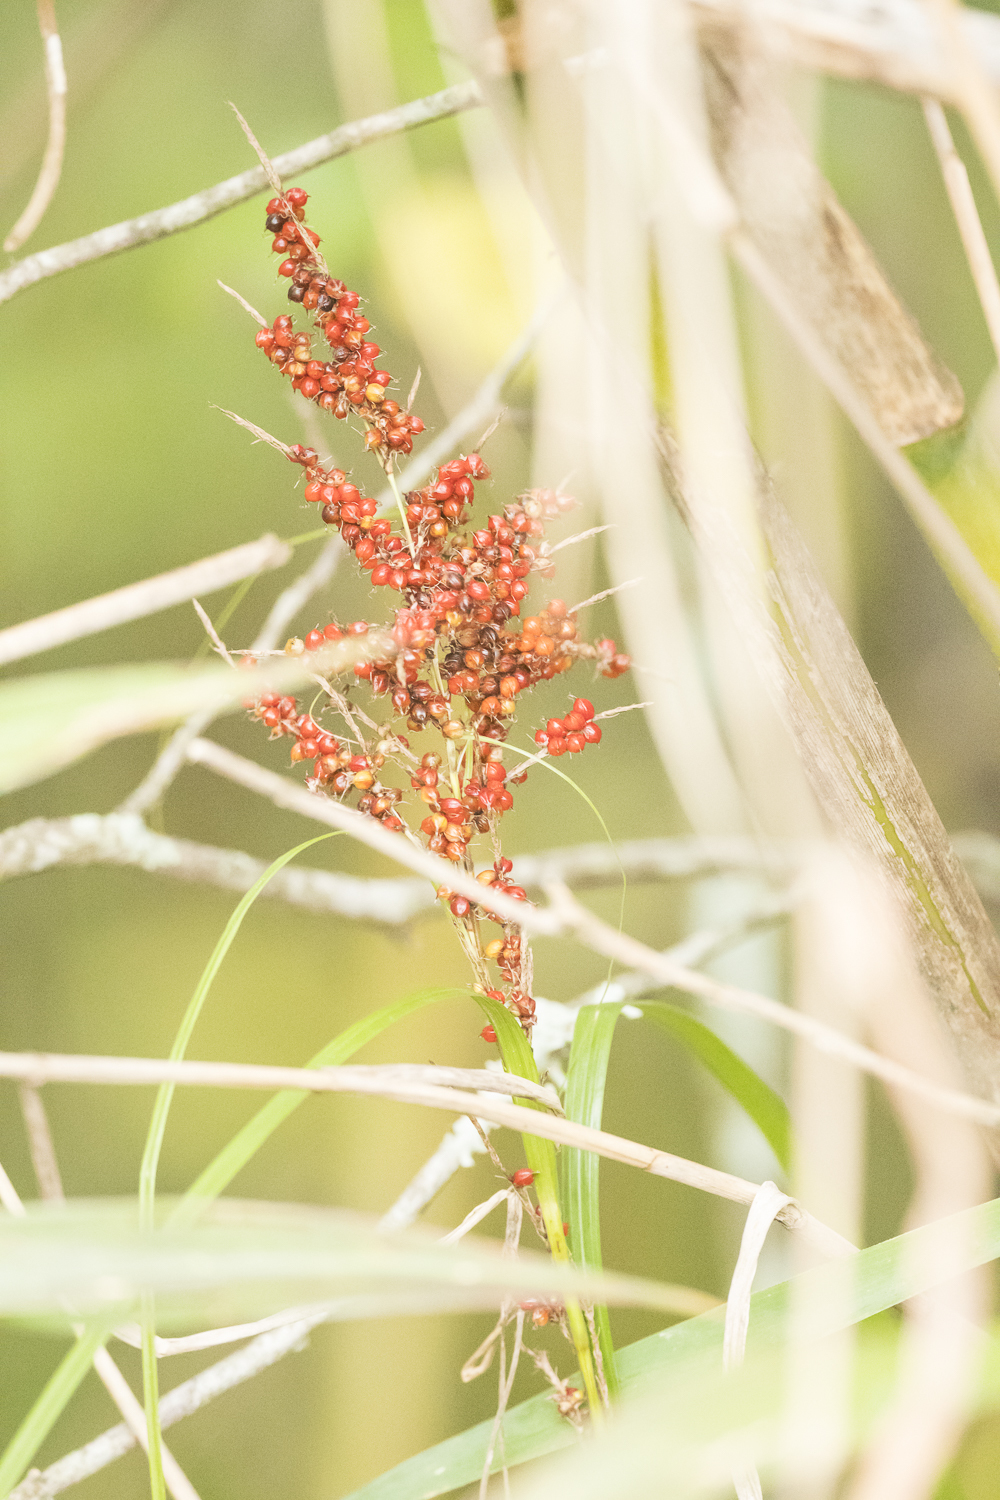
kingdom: Plantae
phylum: Tracheophyta
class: Liliopsida
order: Poales
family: Cyperaceae
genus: Carex
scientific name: Carex baccans
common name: Crimson seeded sedge
